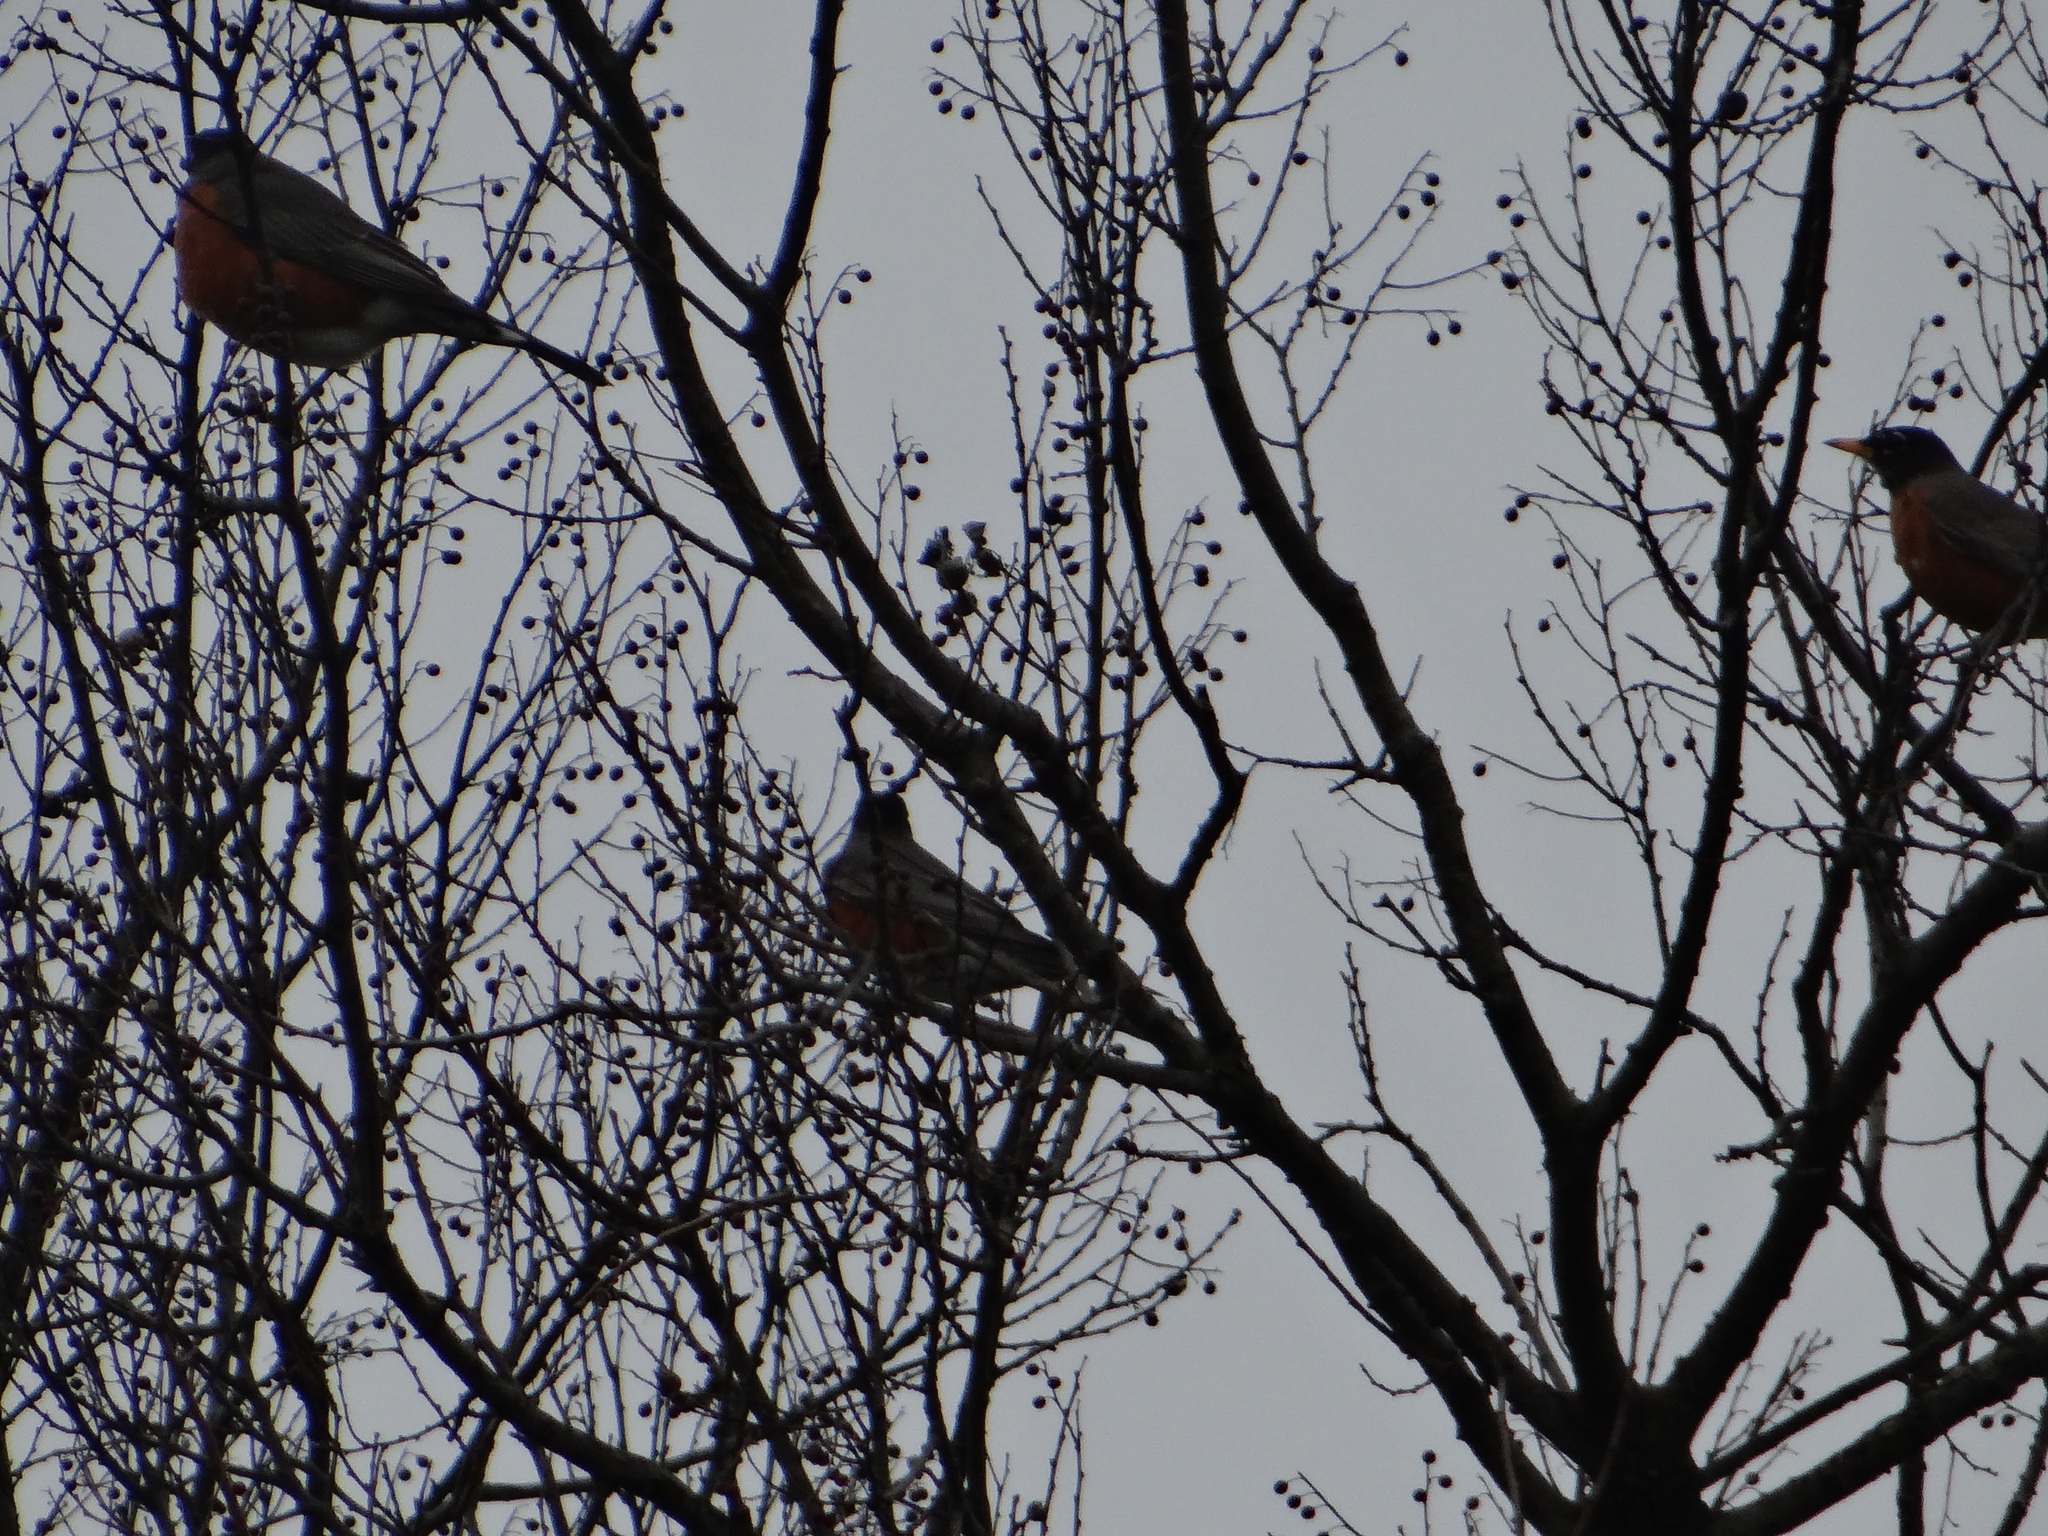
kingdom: Animalia
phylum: Chordata
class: Aves
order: Passeriformes
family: Turdidae
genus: Turdus
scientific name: Turdus migratorius
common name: American robin
